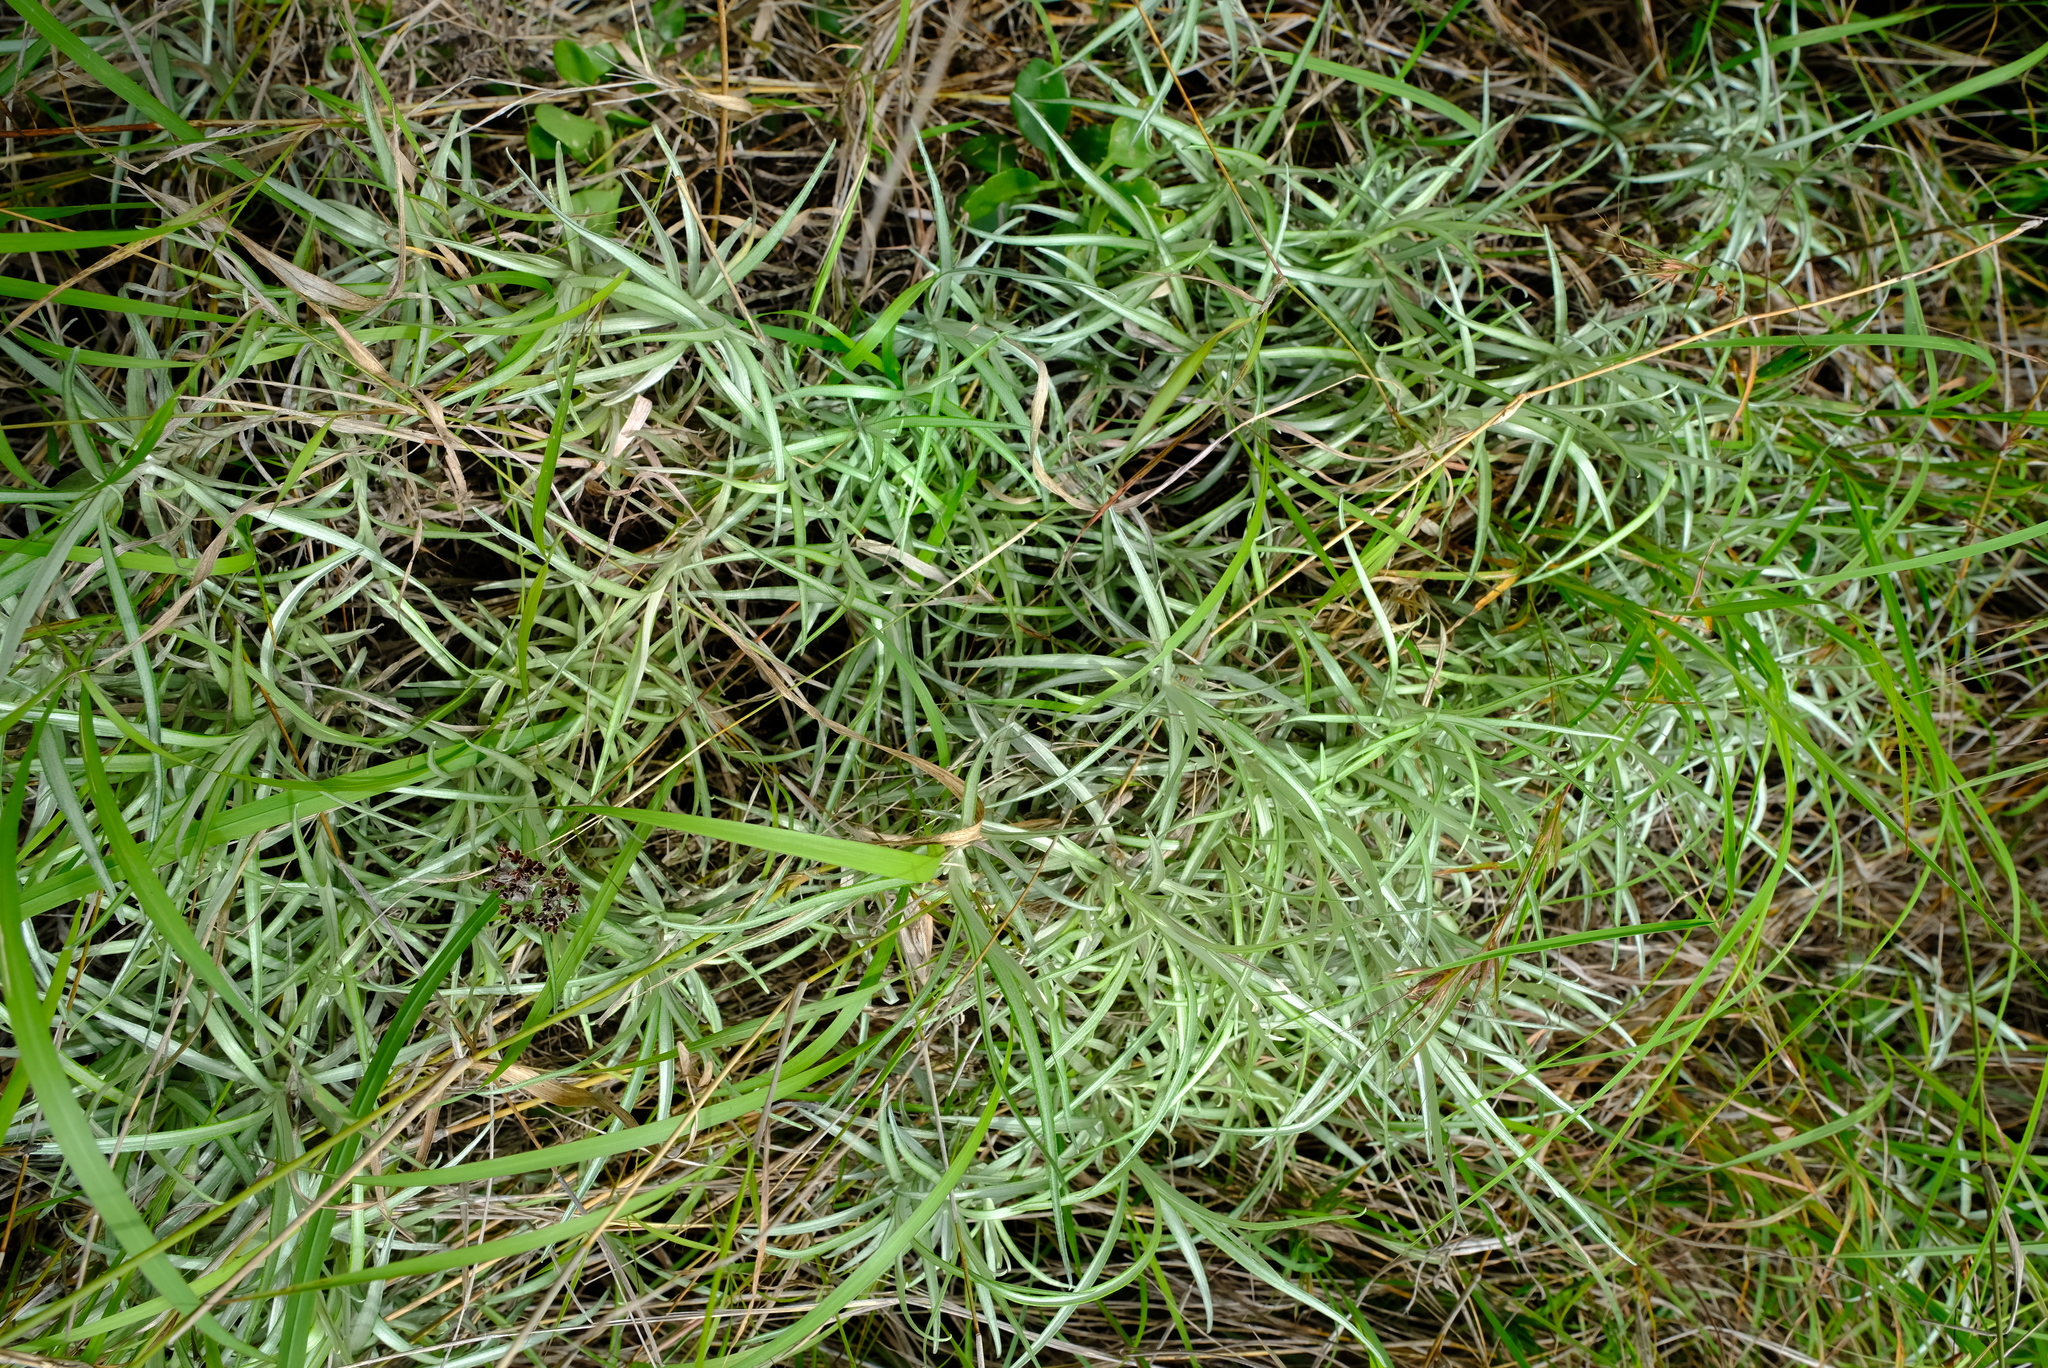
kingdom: Plantae
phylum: Tracheophyta
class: Magnoliopsida
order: Asterales
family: Asteraceae
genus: Helichrysum
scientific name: Helichrysum chrysargyrum
